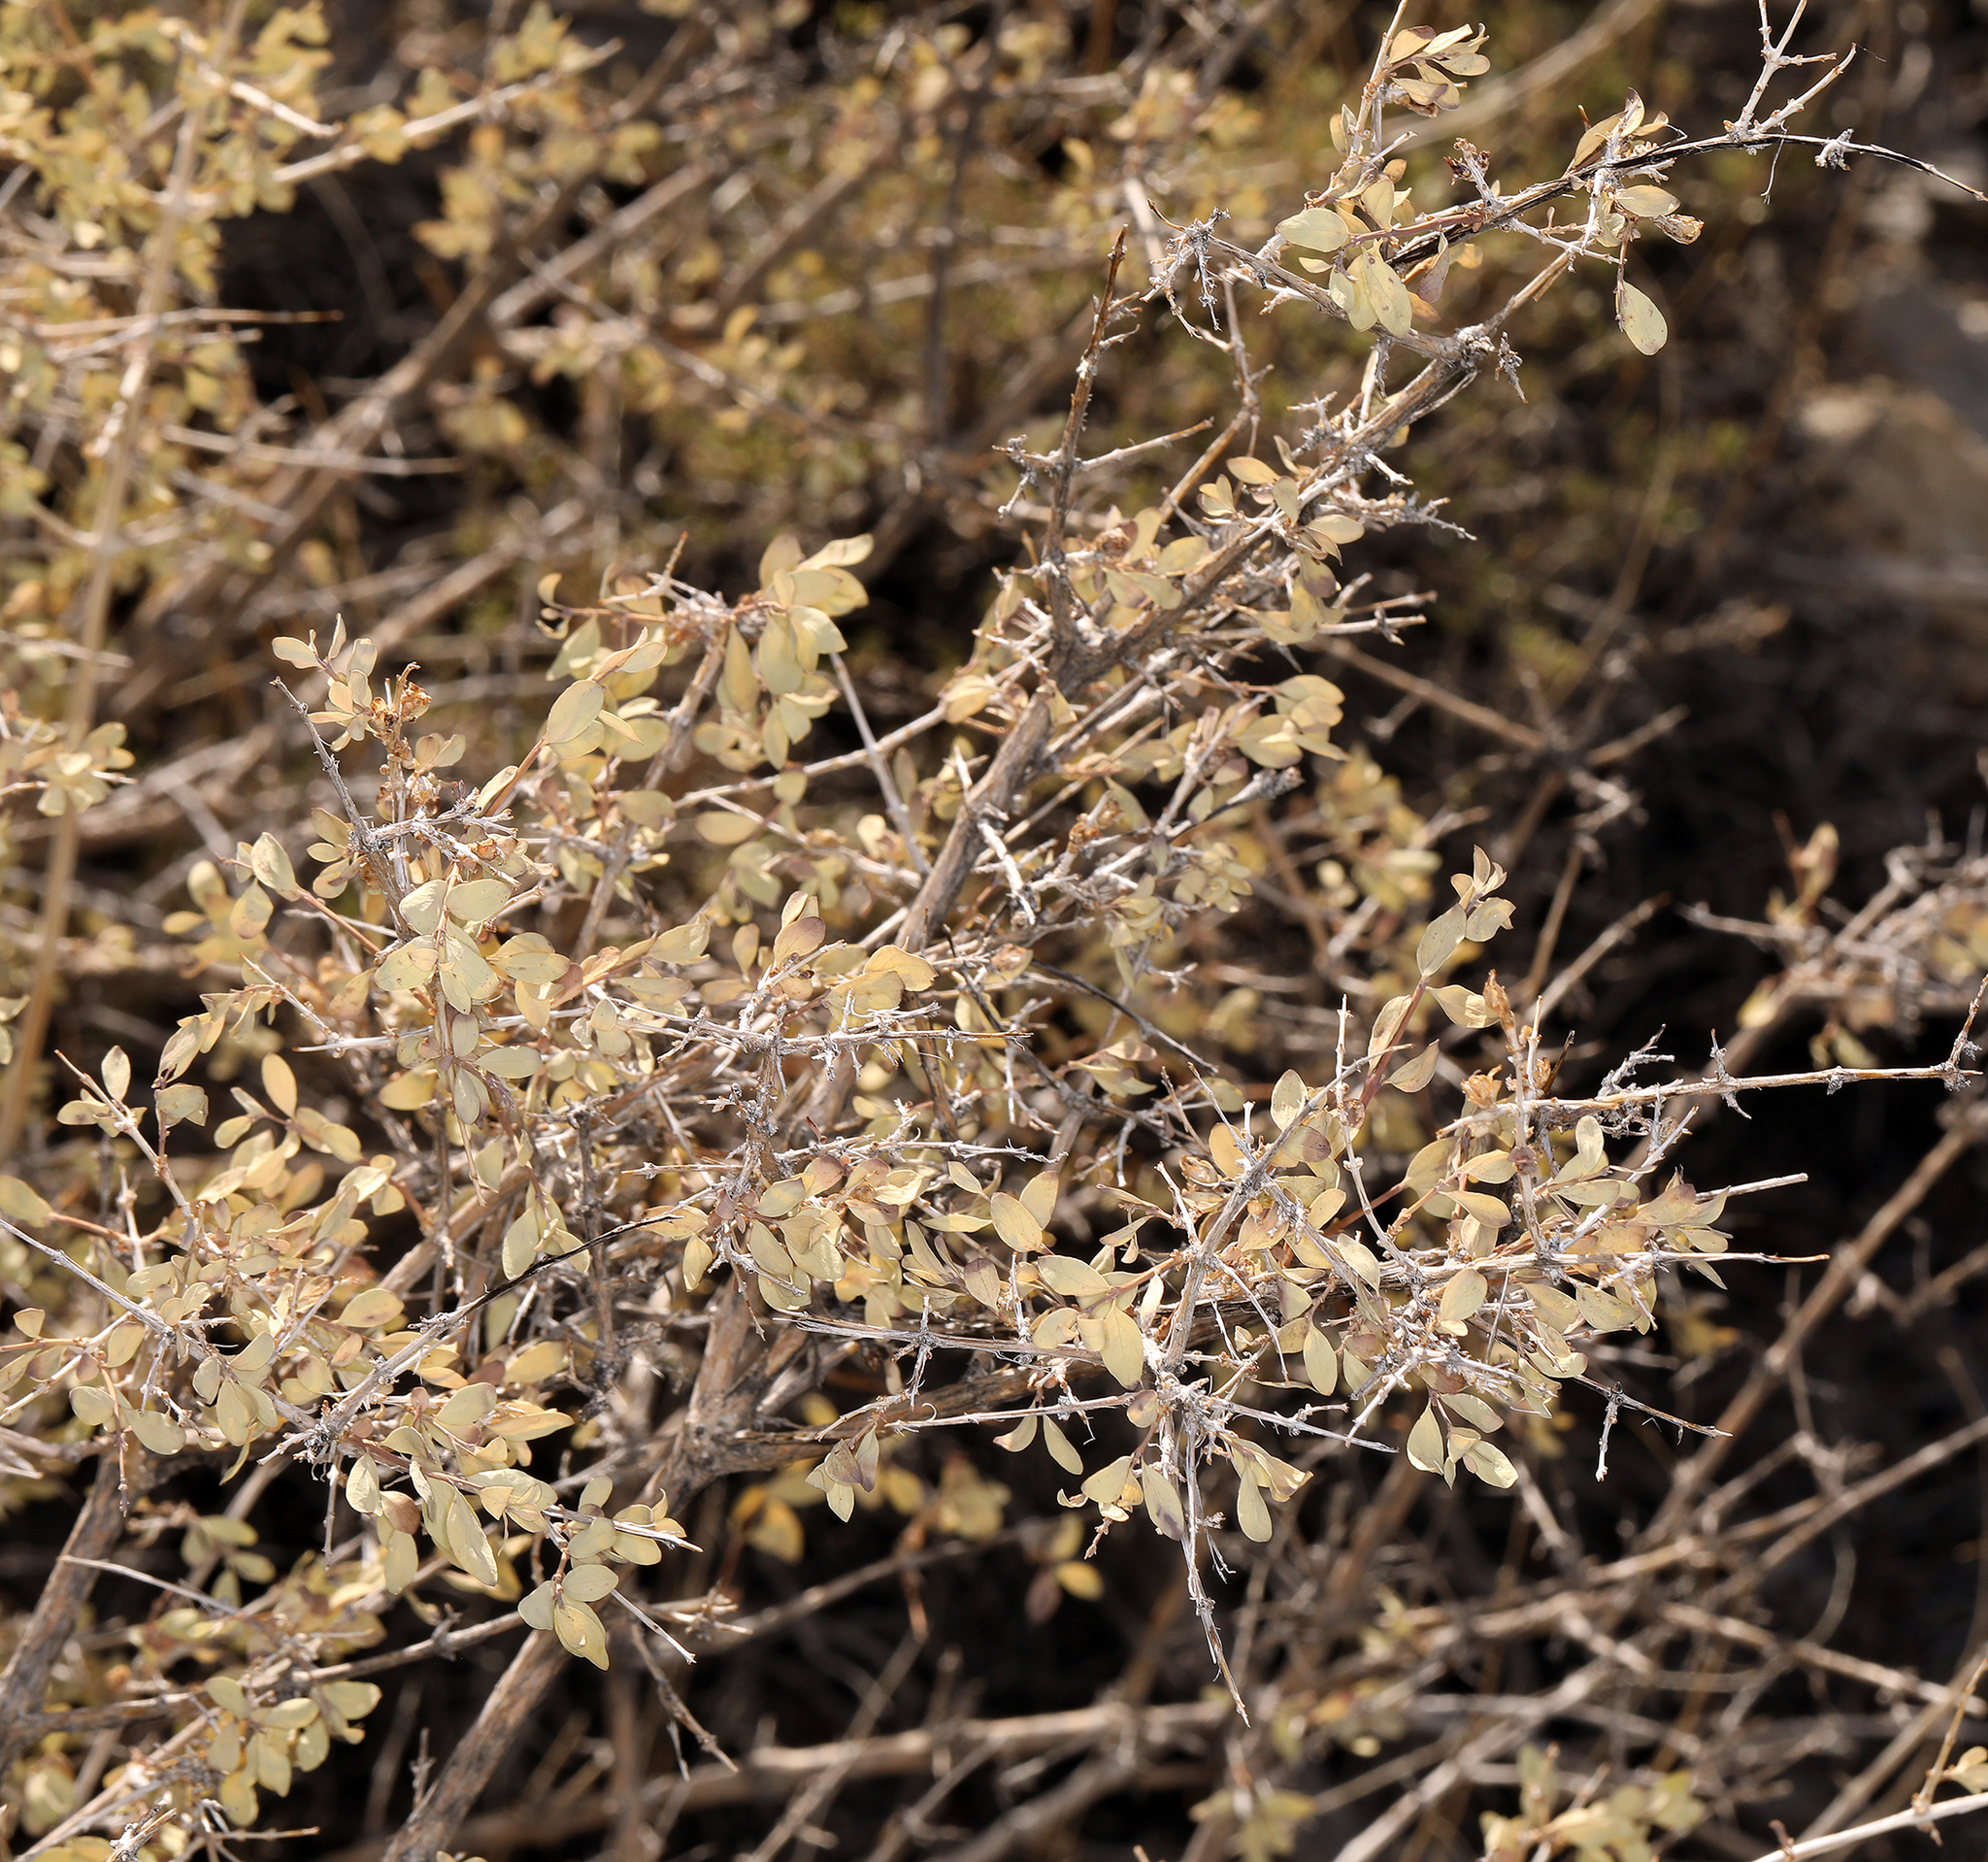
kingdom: Plantae
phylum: Tracheophyta
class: Magnoliopsida
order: Dipsacales
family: Caprifoliaceae
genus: Symphoricarpos
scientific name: Symphoricarpos longiflorus
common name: Fragrant snowberry
